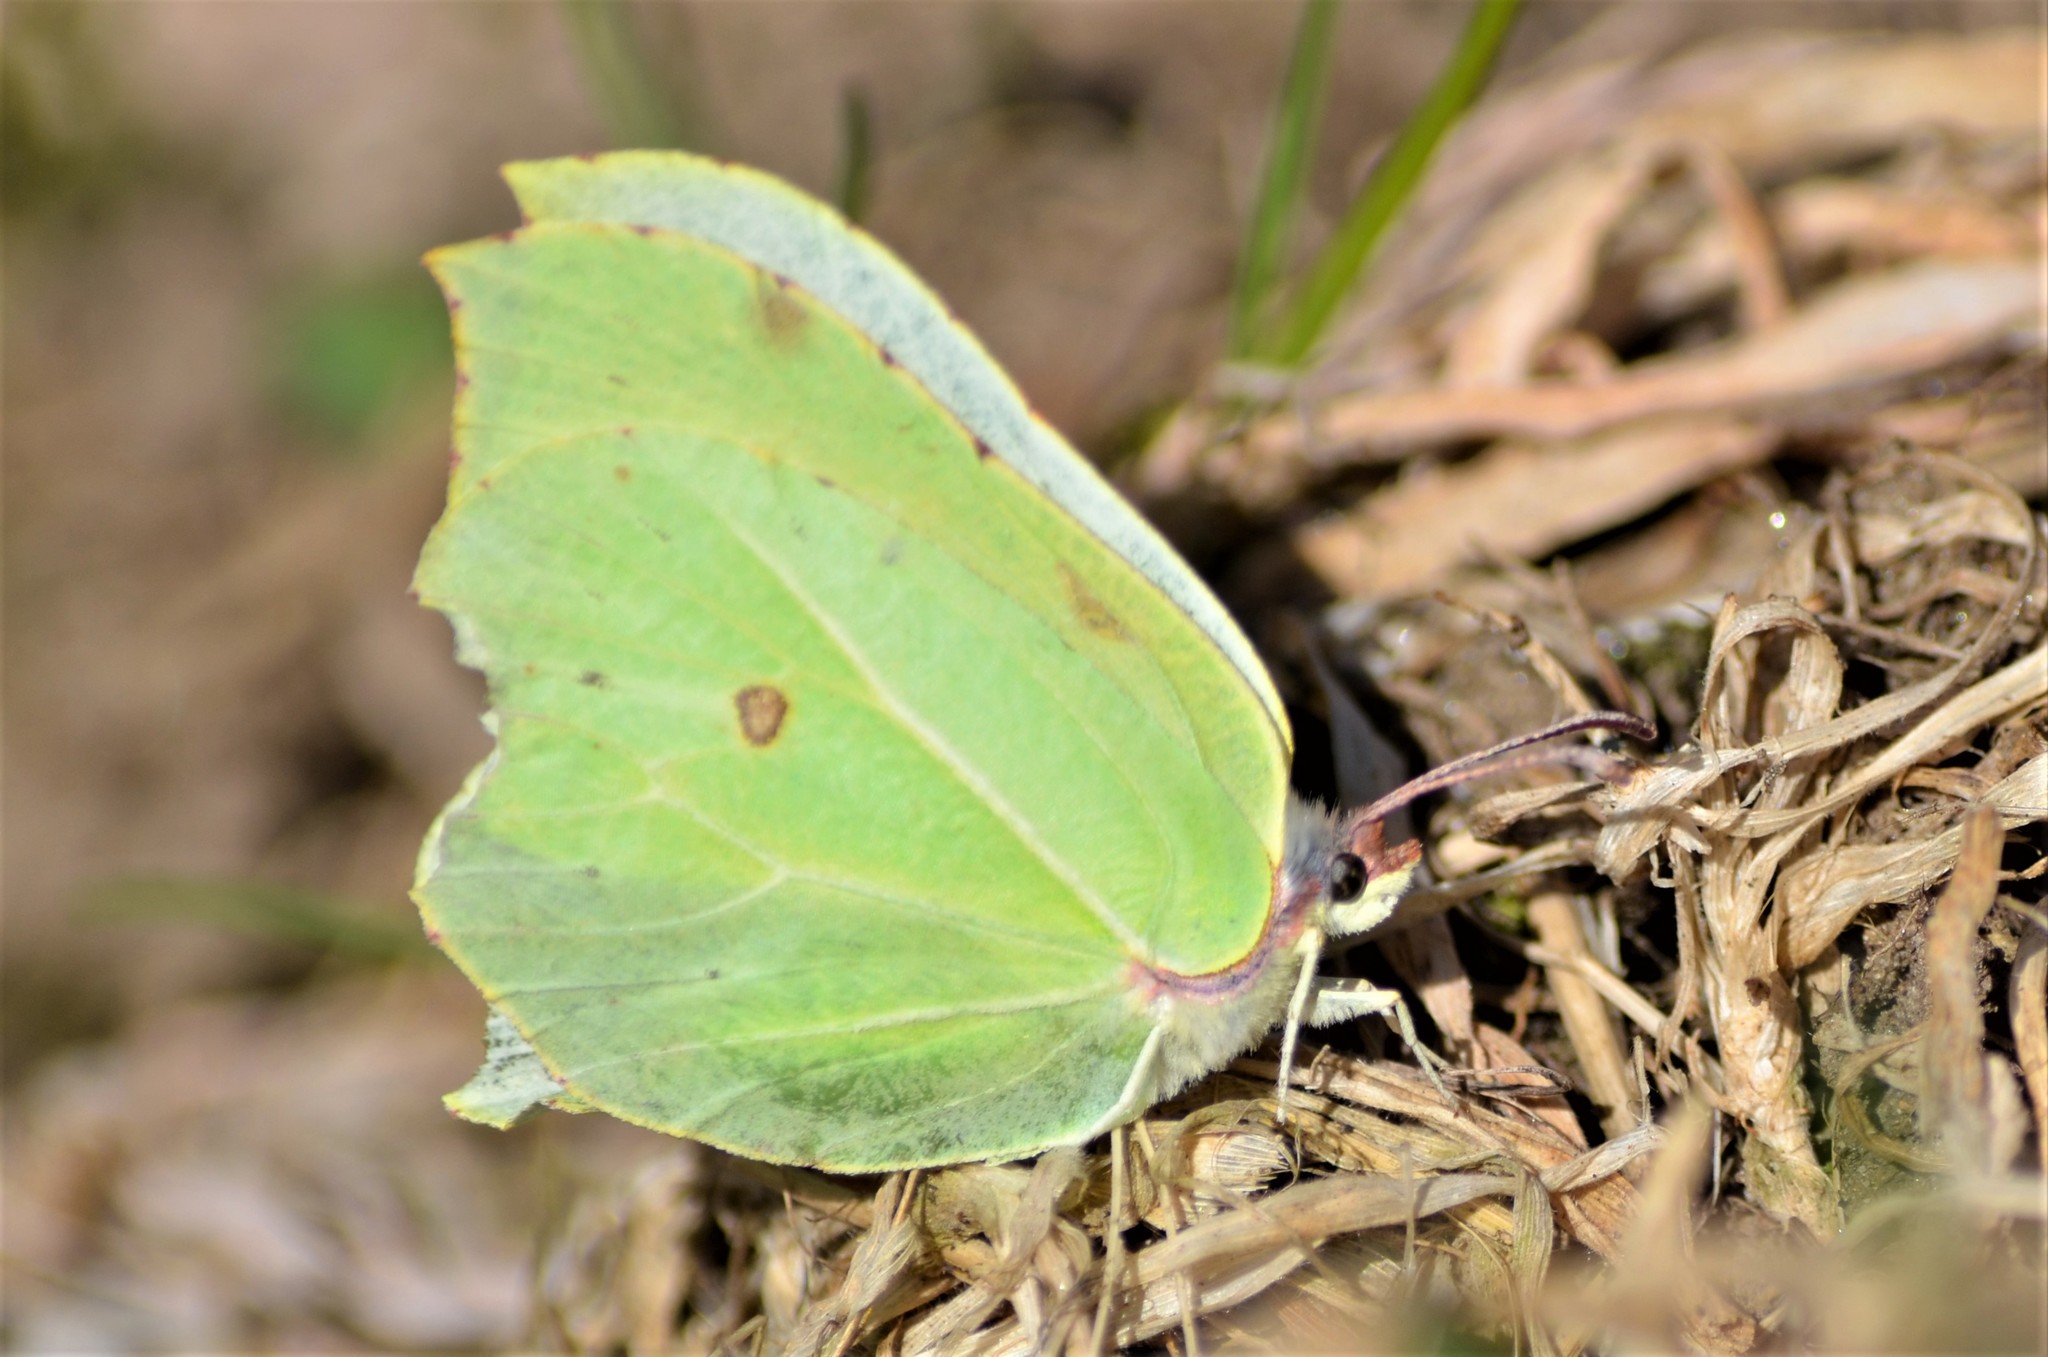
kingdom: Animalia
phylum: Arthropoda
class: Insecta
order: Lepidoptera
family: Pieridae
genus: Gonepteryx
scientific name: Gonepteryx rhamni
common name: Brimstone
